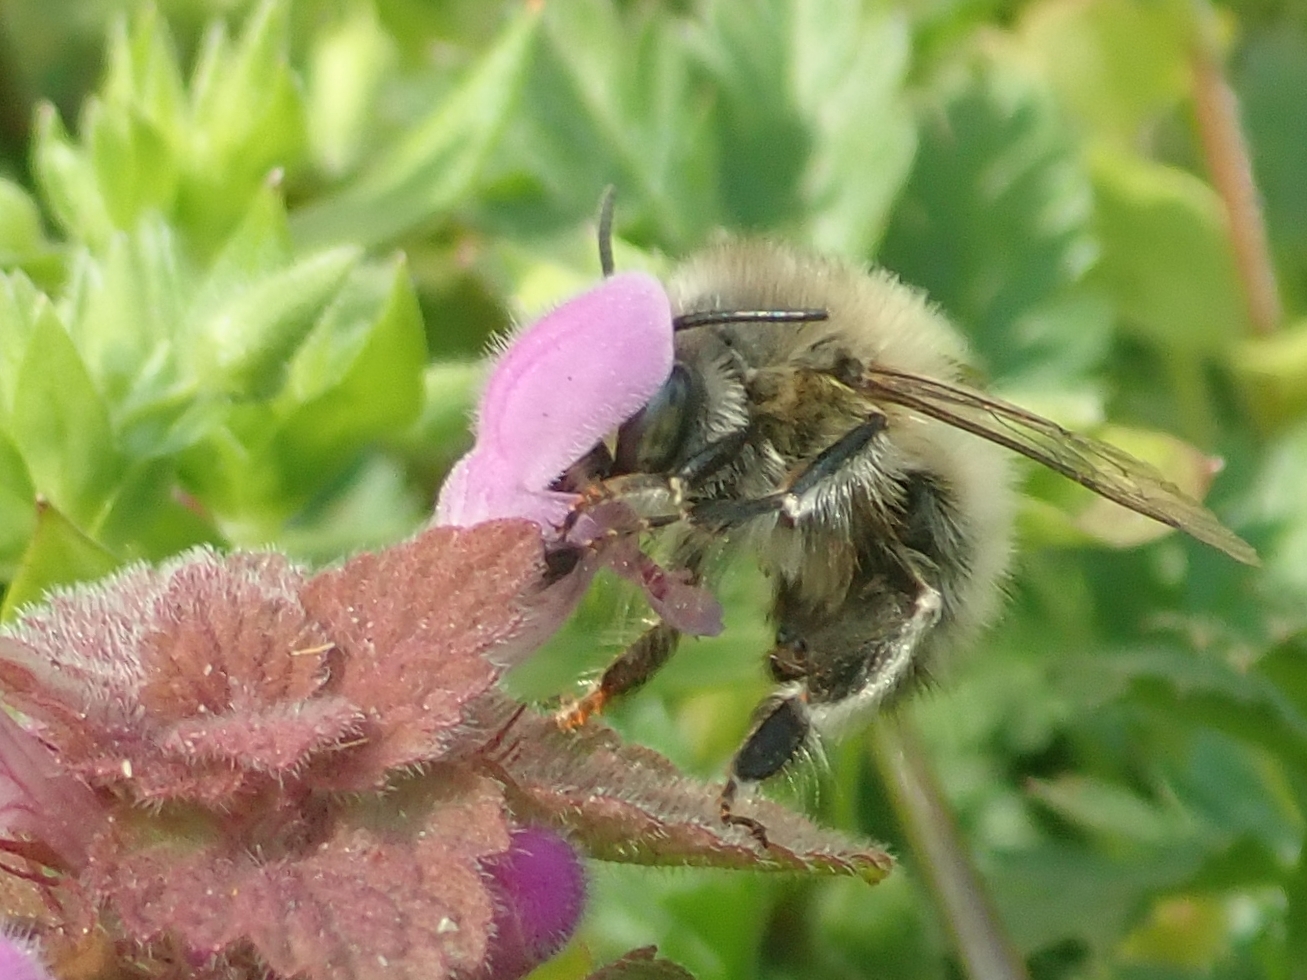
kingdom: Animalia
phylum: Arthropoda
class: Insecta
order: Hymenoptera
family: Apidae
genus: Anthophora
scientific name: Anthophora plumipes
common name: Hairy-footed flower bee
